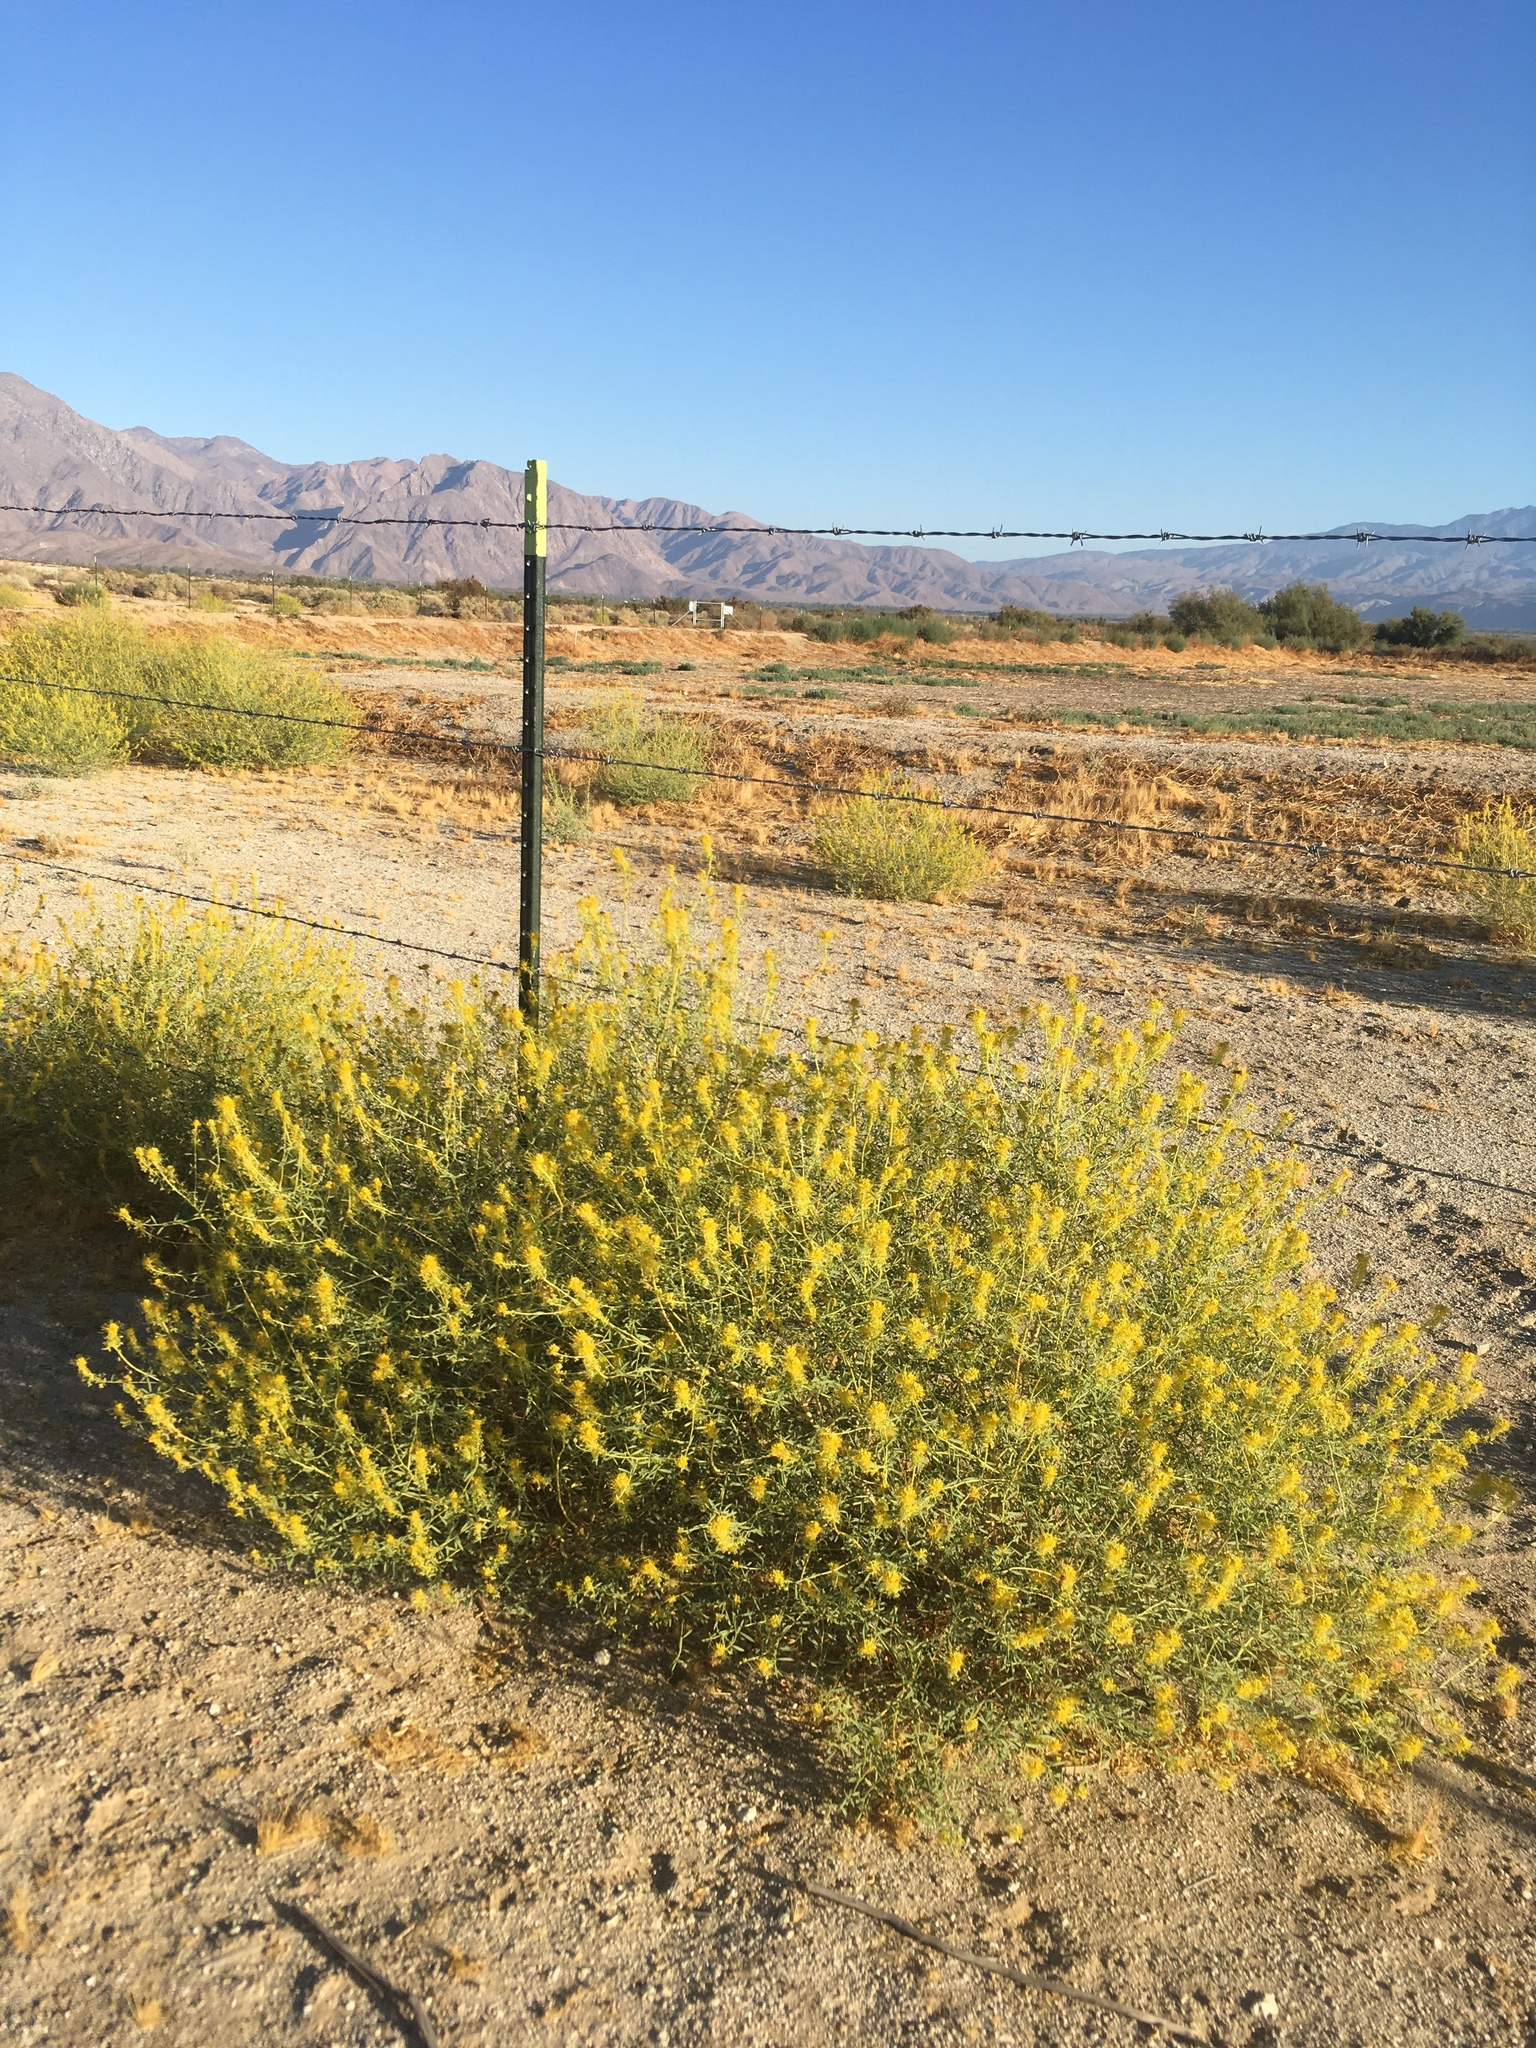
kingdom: Plantae
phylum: Tracheophyta
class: Magnoliopsida
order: Brassicales
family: Cleomaceae
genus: Cleomella
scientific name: Cleomella palmeri
